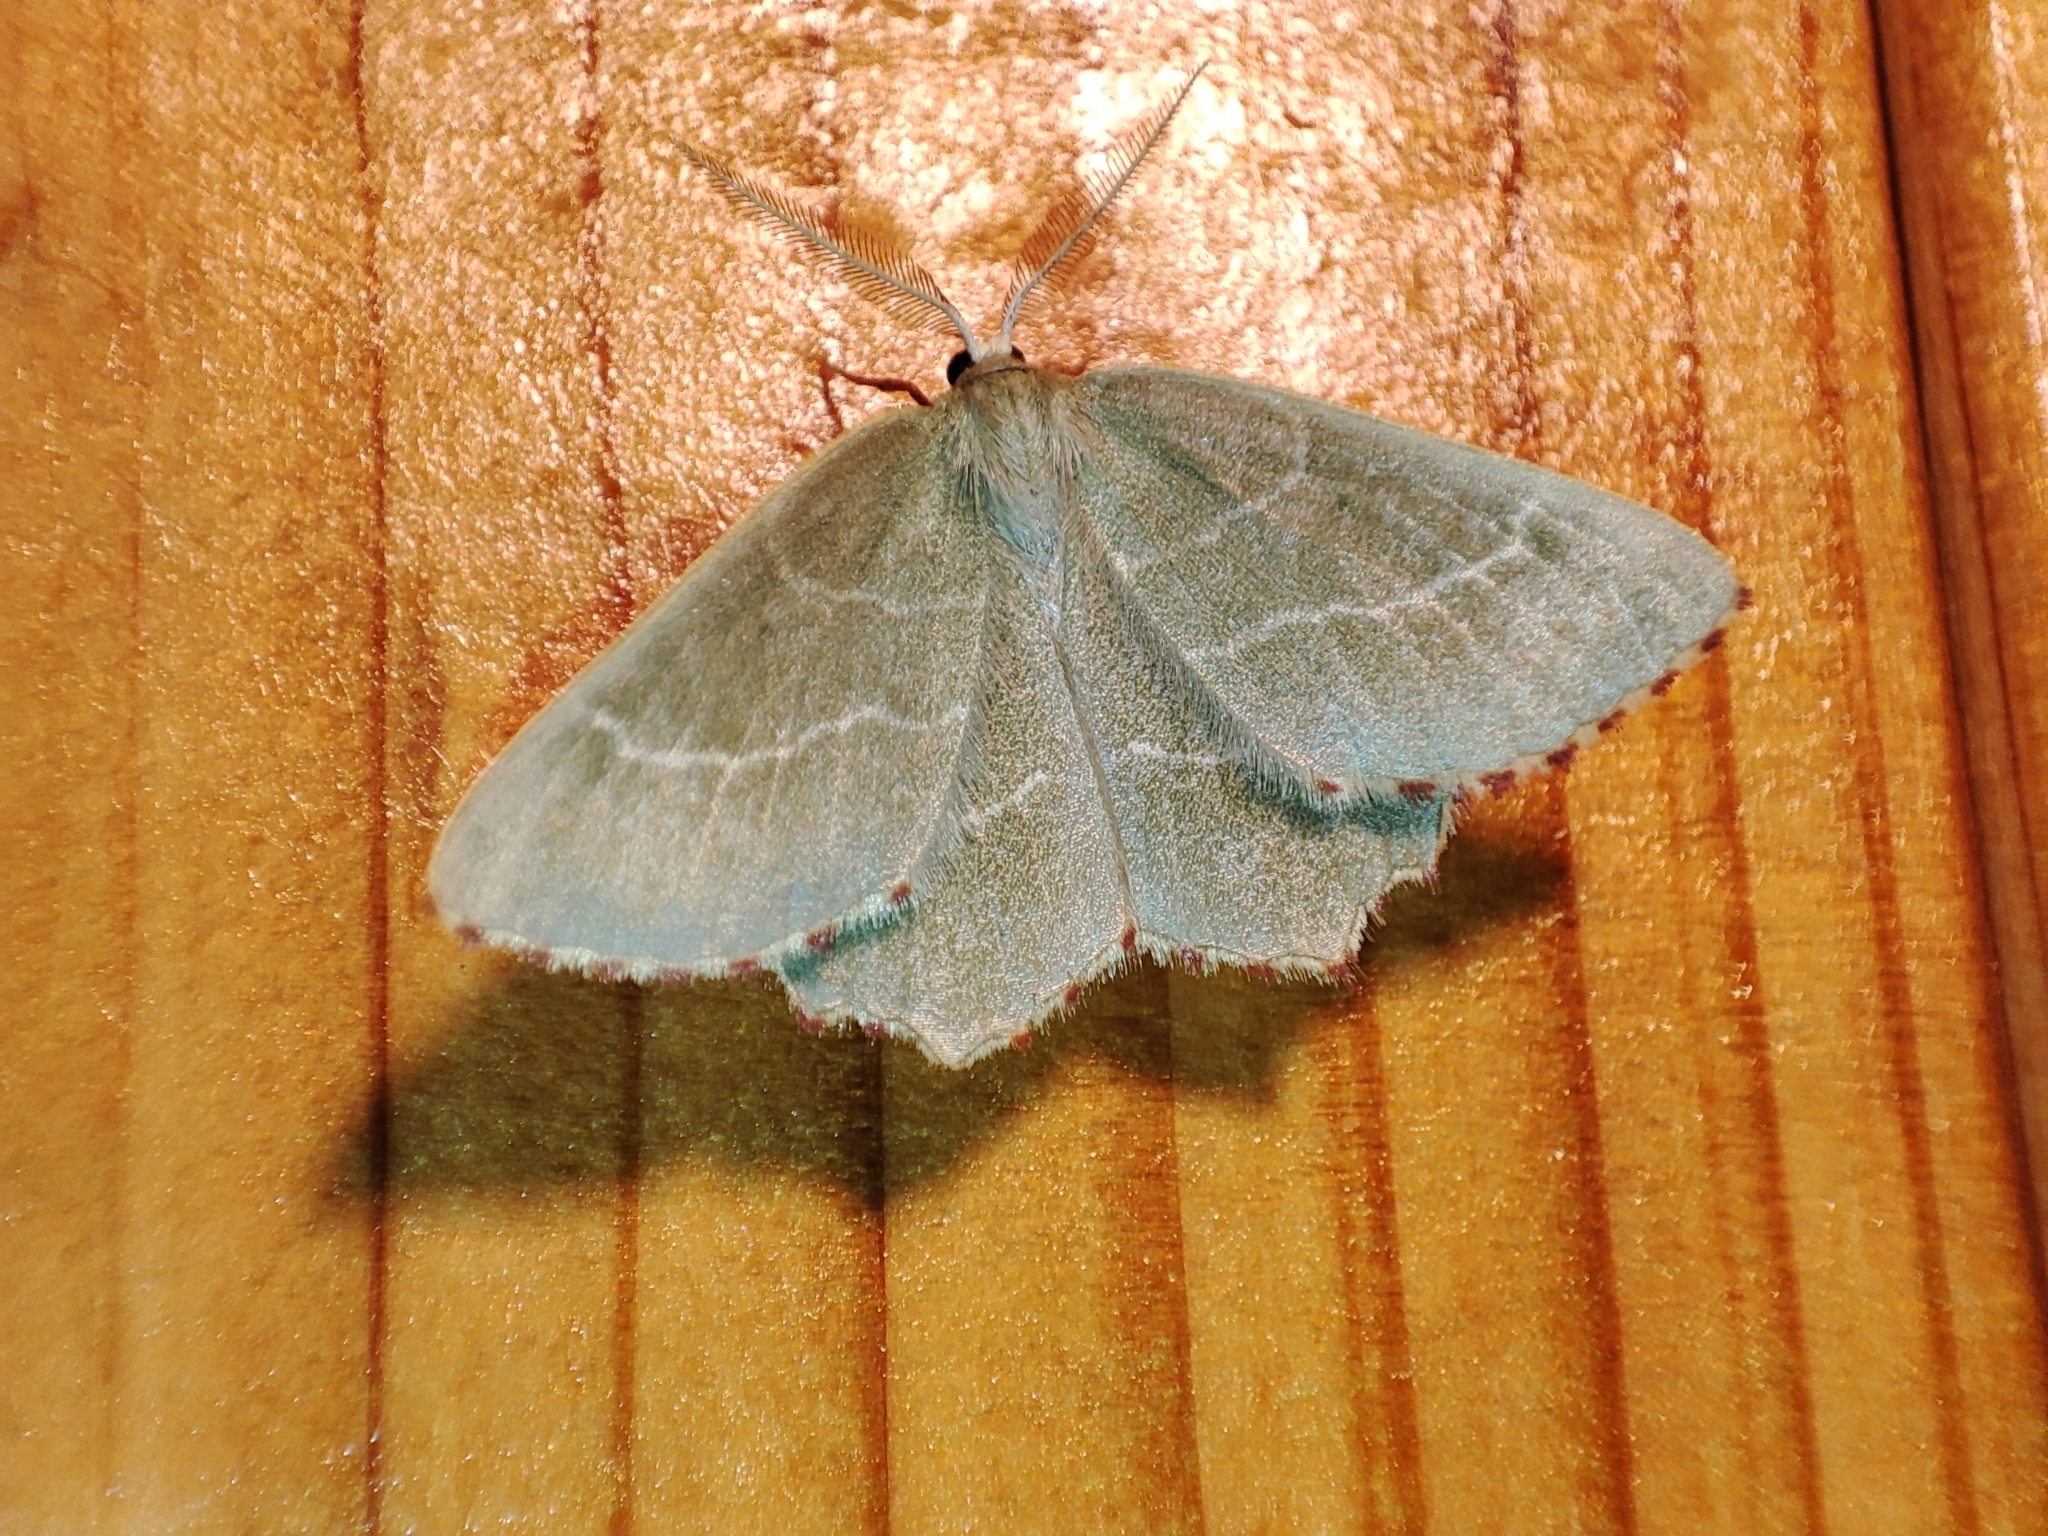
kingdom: Animalia
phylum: Arthropoda
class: Insecta
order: Lepidoptera
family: Geometridae
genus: Thalera
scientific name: Thalera fimbrialis
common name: Sussex emerald
